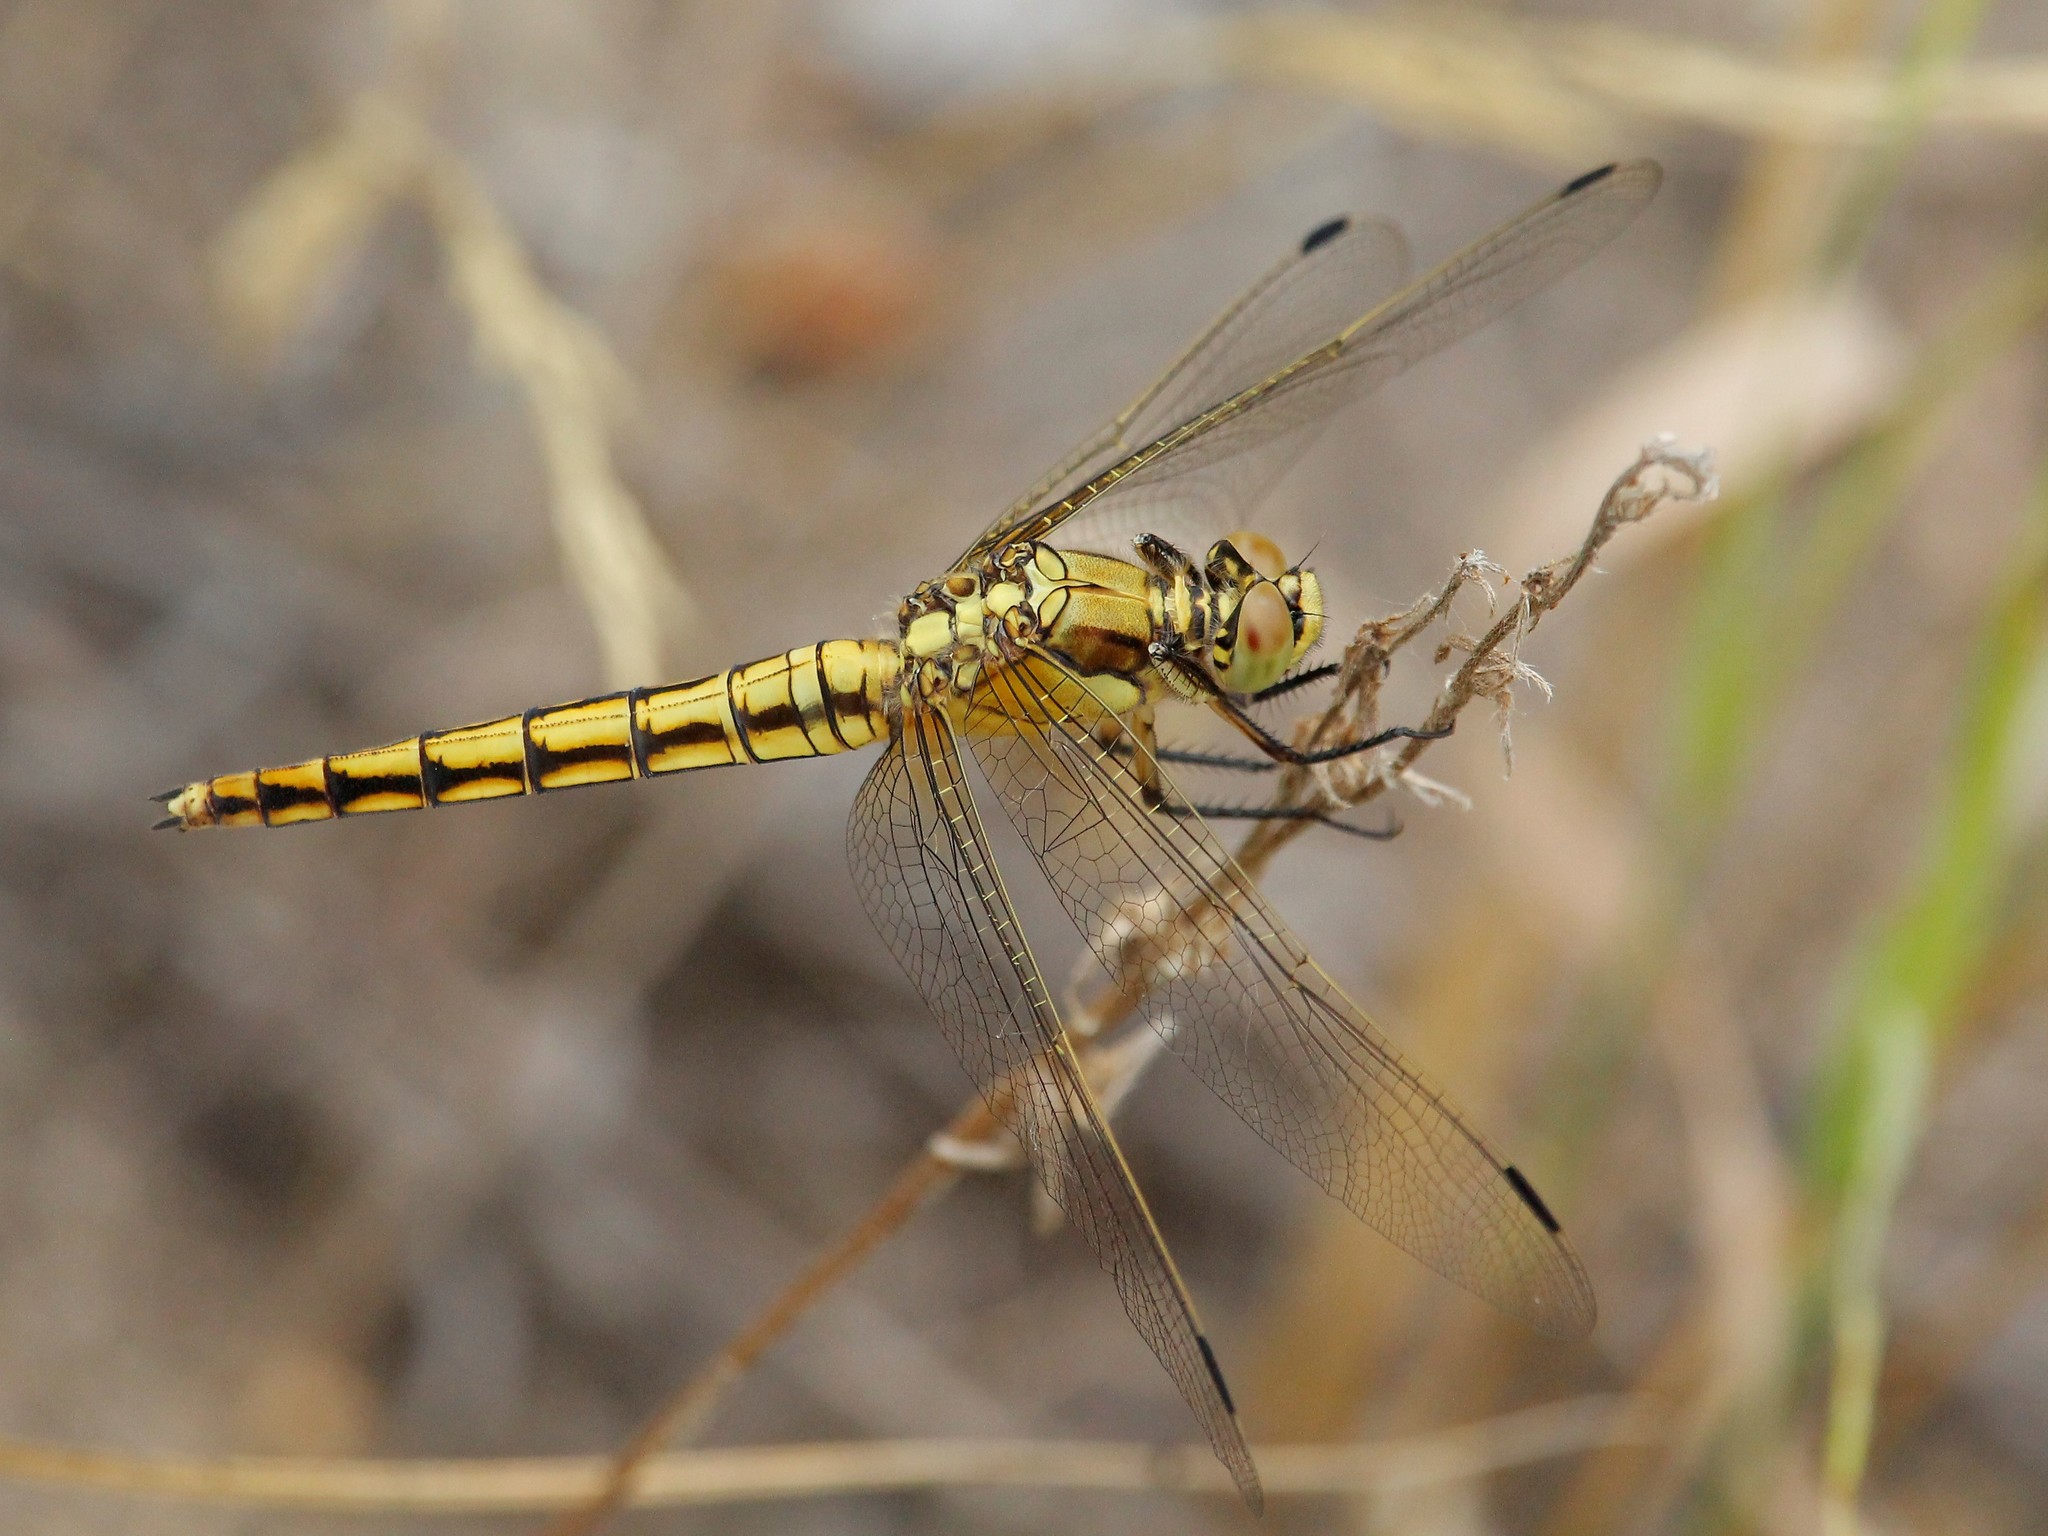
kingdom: Animalia
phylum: Arthropoda
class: Insecta
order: Odonata
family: Libellulidae
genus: Orthetrum
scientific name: Orthetrum cancellatum
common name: Black-tailed skimmer
